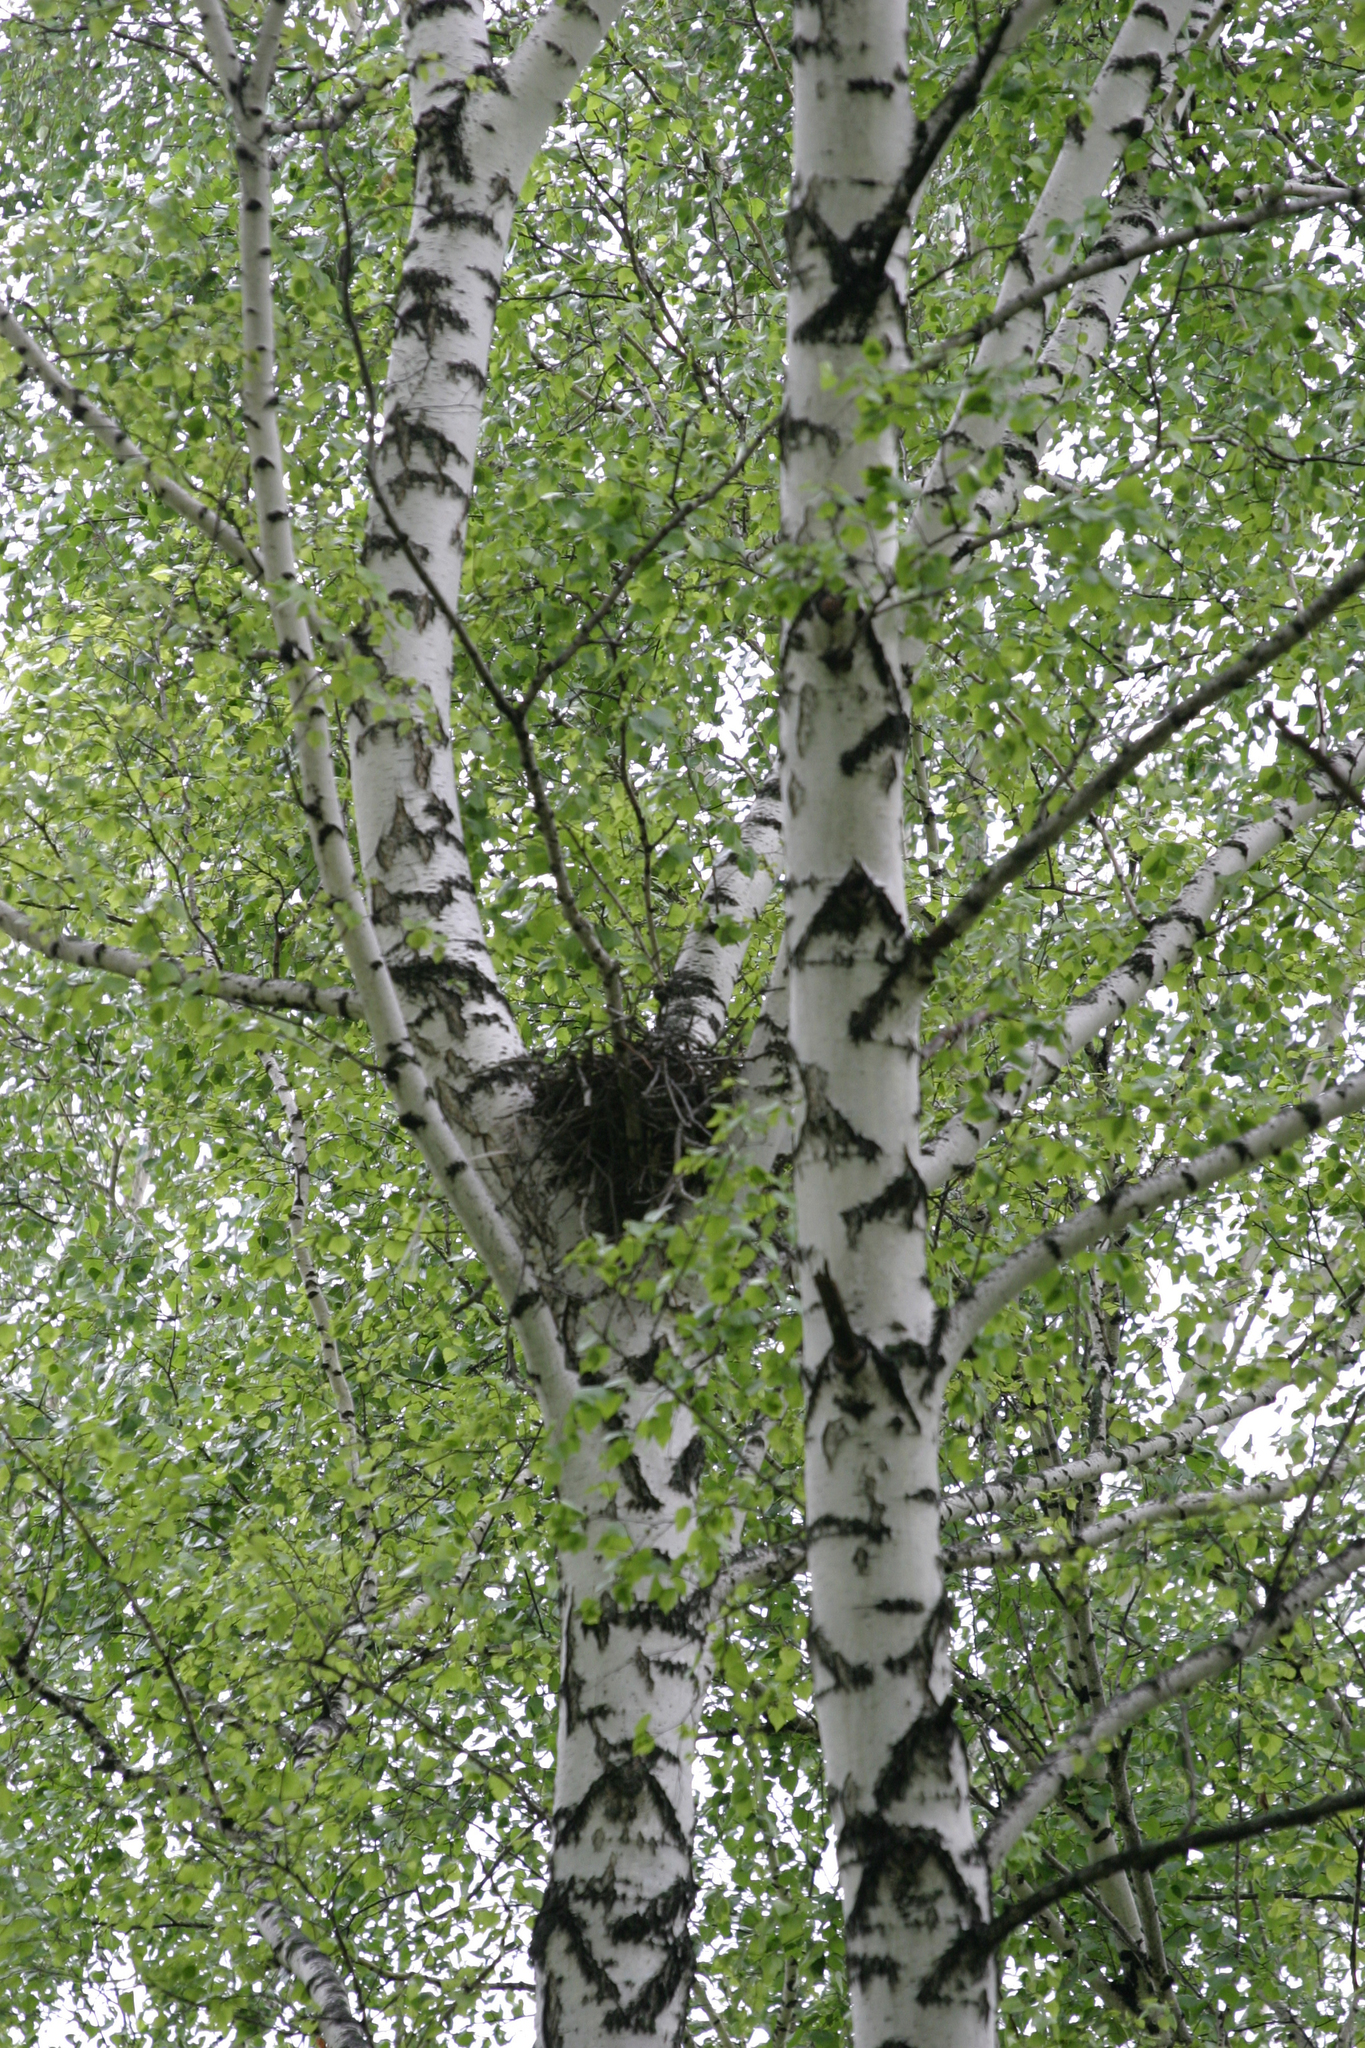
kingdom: Plantae
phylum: Tracheophyta
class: Magnoliopsida
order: Fagales
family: Betulaceae
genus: Betula
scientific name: Betula pendula
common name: Silver birch
